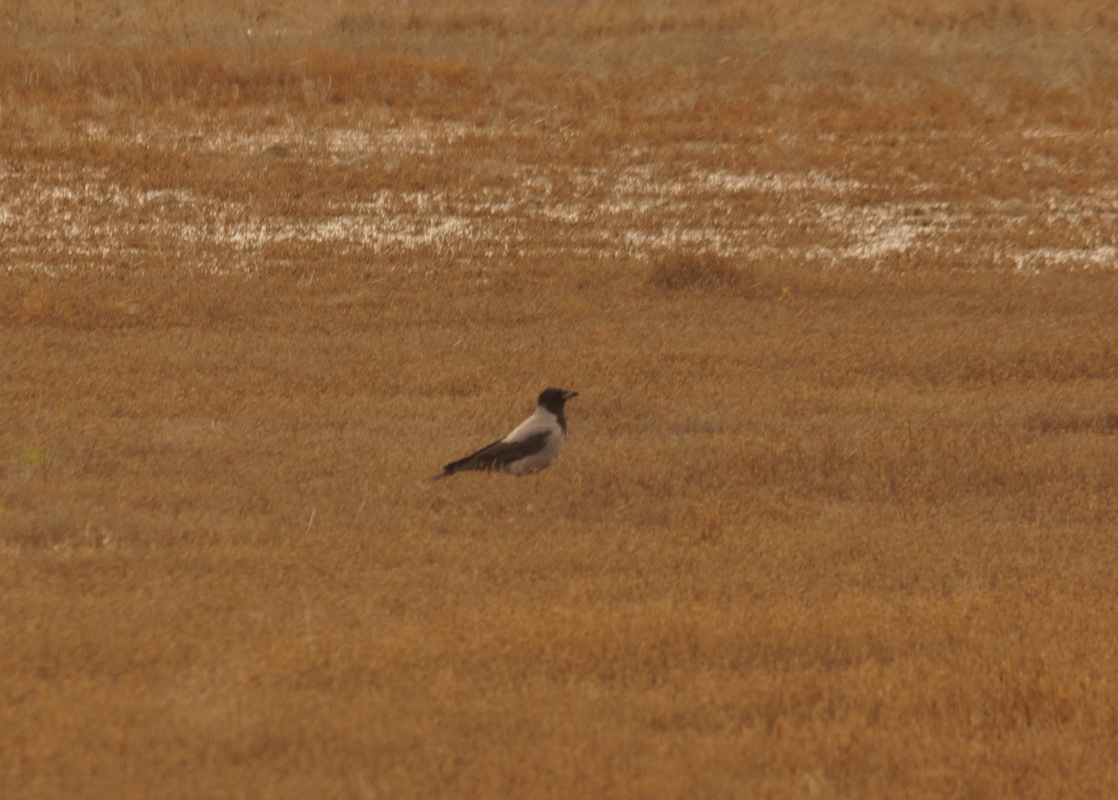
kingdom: Animalia
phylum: Chordata
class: Aves
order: Passeriformes
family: Corvidae
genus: Corvus
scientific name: Corvus cornix
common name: Hooded crow
